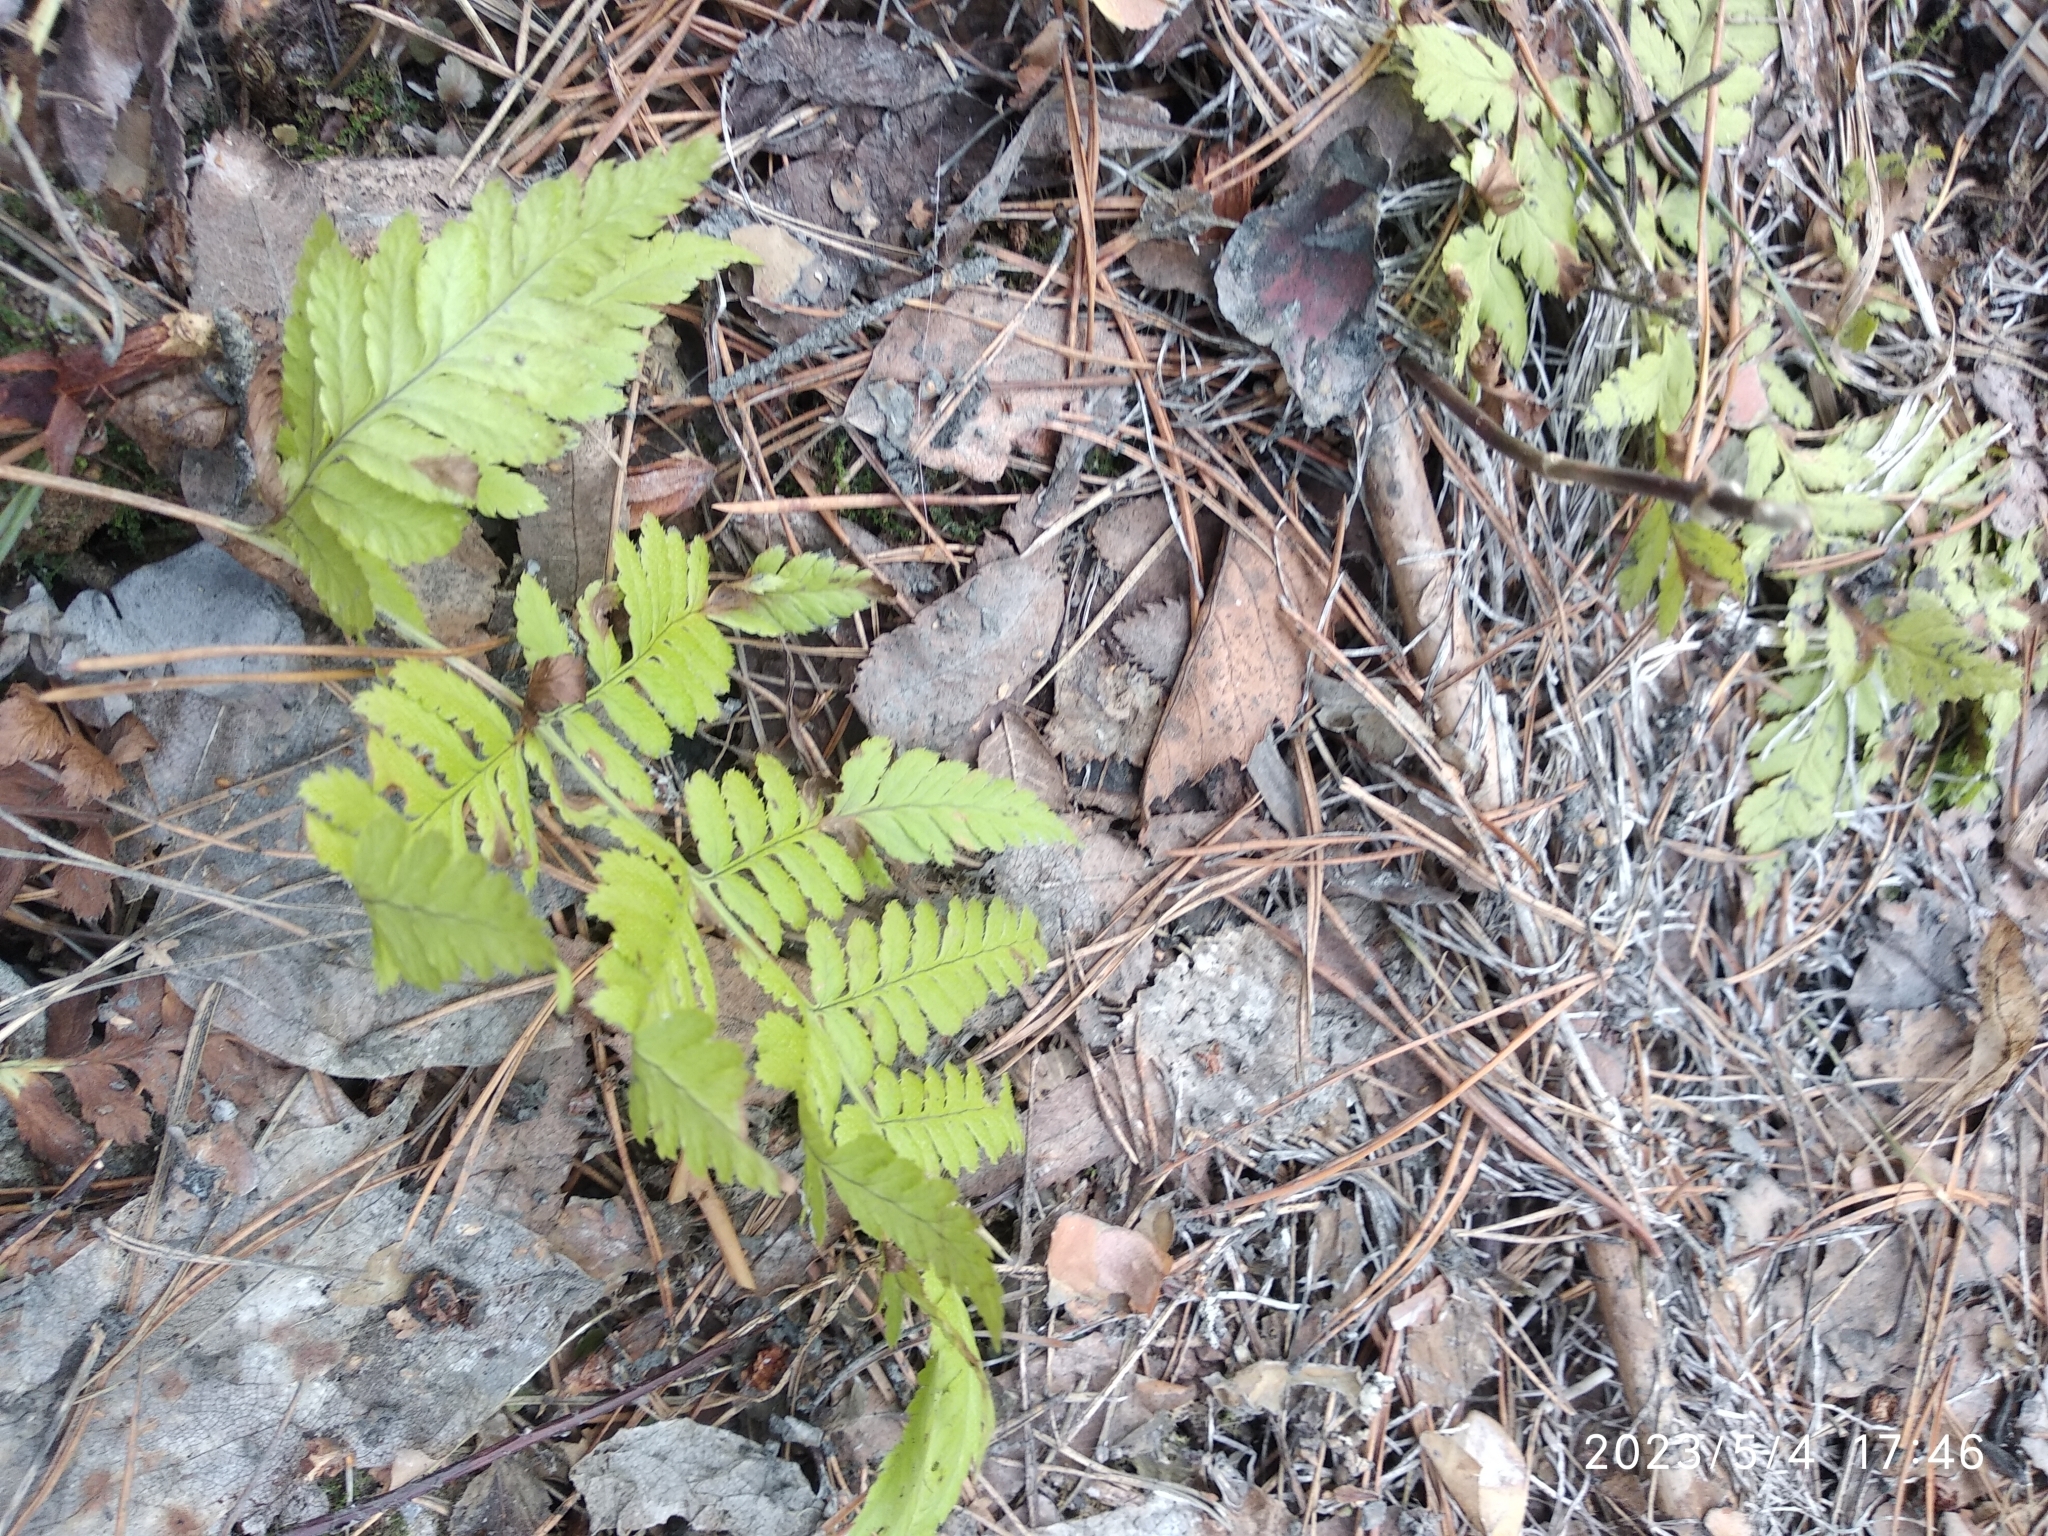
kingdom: Plantae
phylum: Tracheophyta
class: Polypodiopsida
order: Polypodiales
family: Cystopteridaceae
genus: Gymnocarpium
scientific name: Gymnocarpium dryopteris
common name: Oak fern
